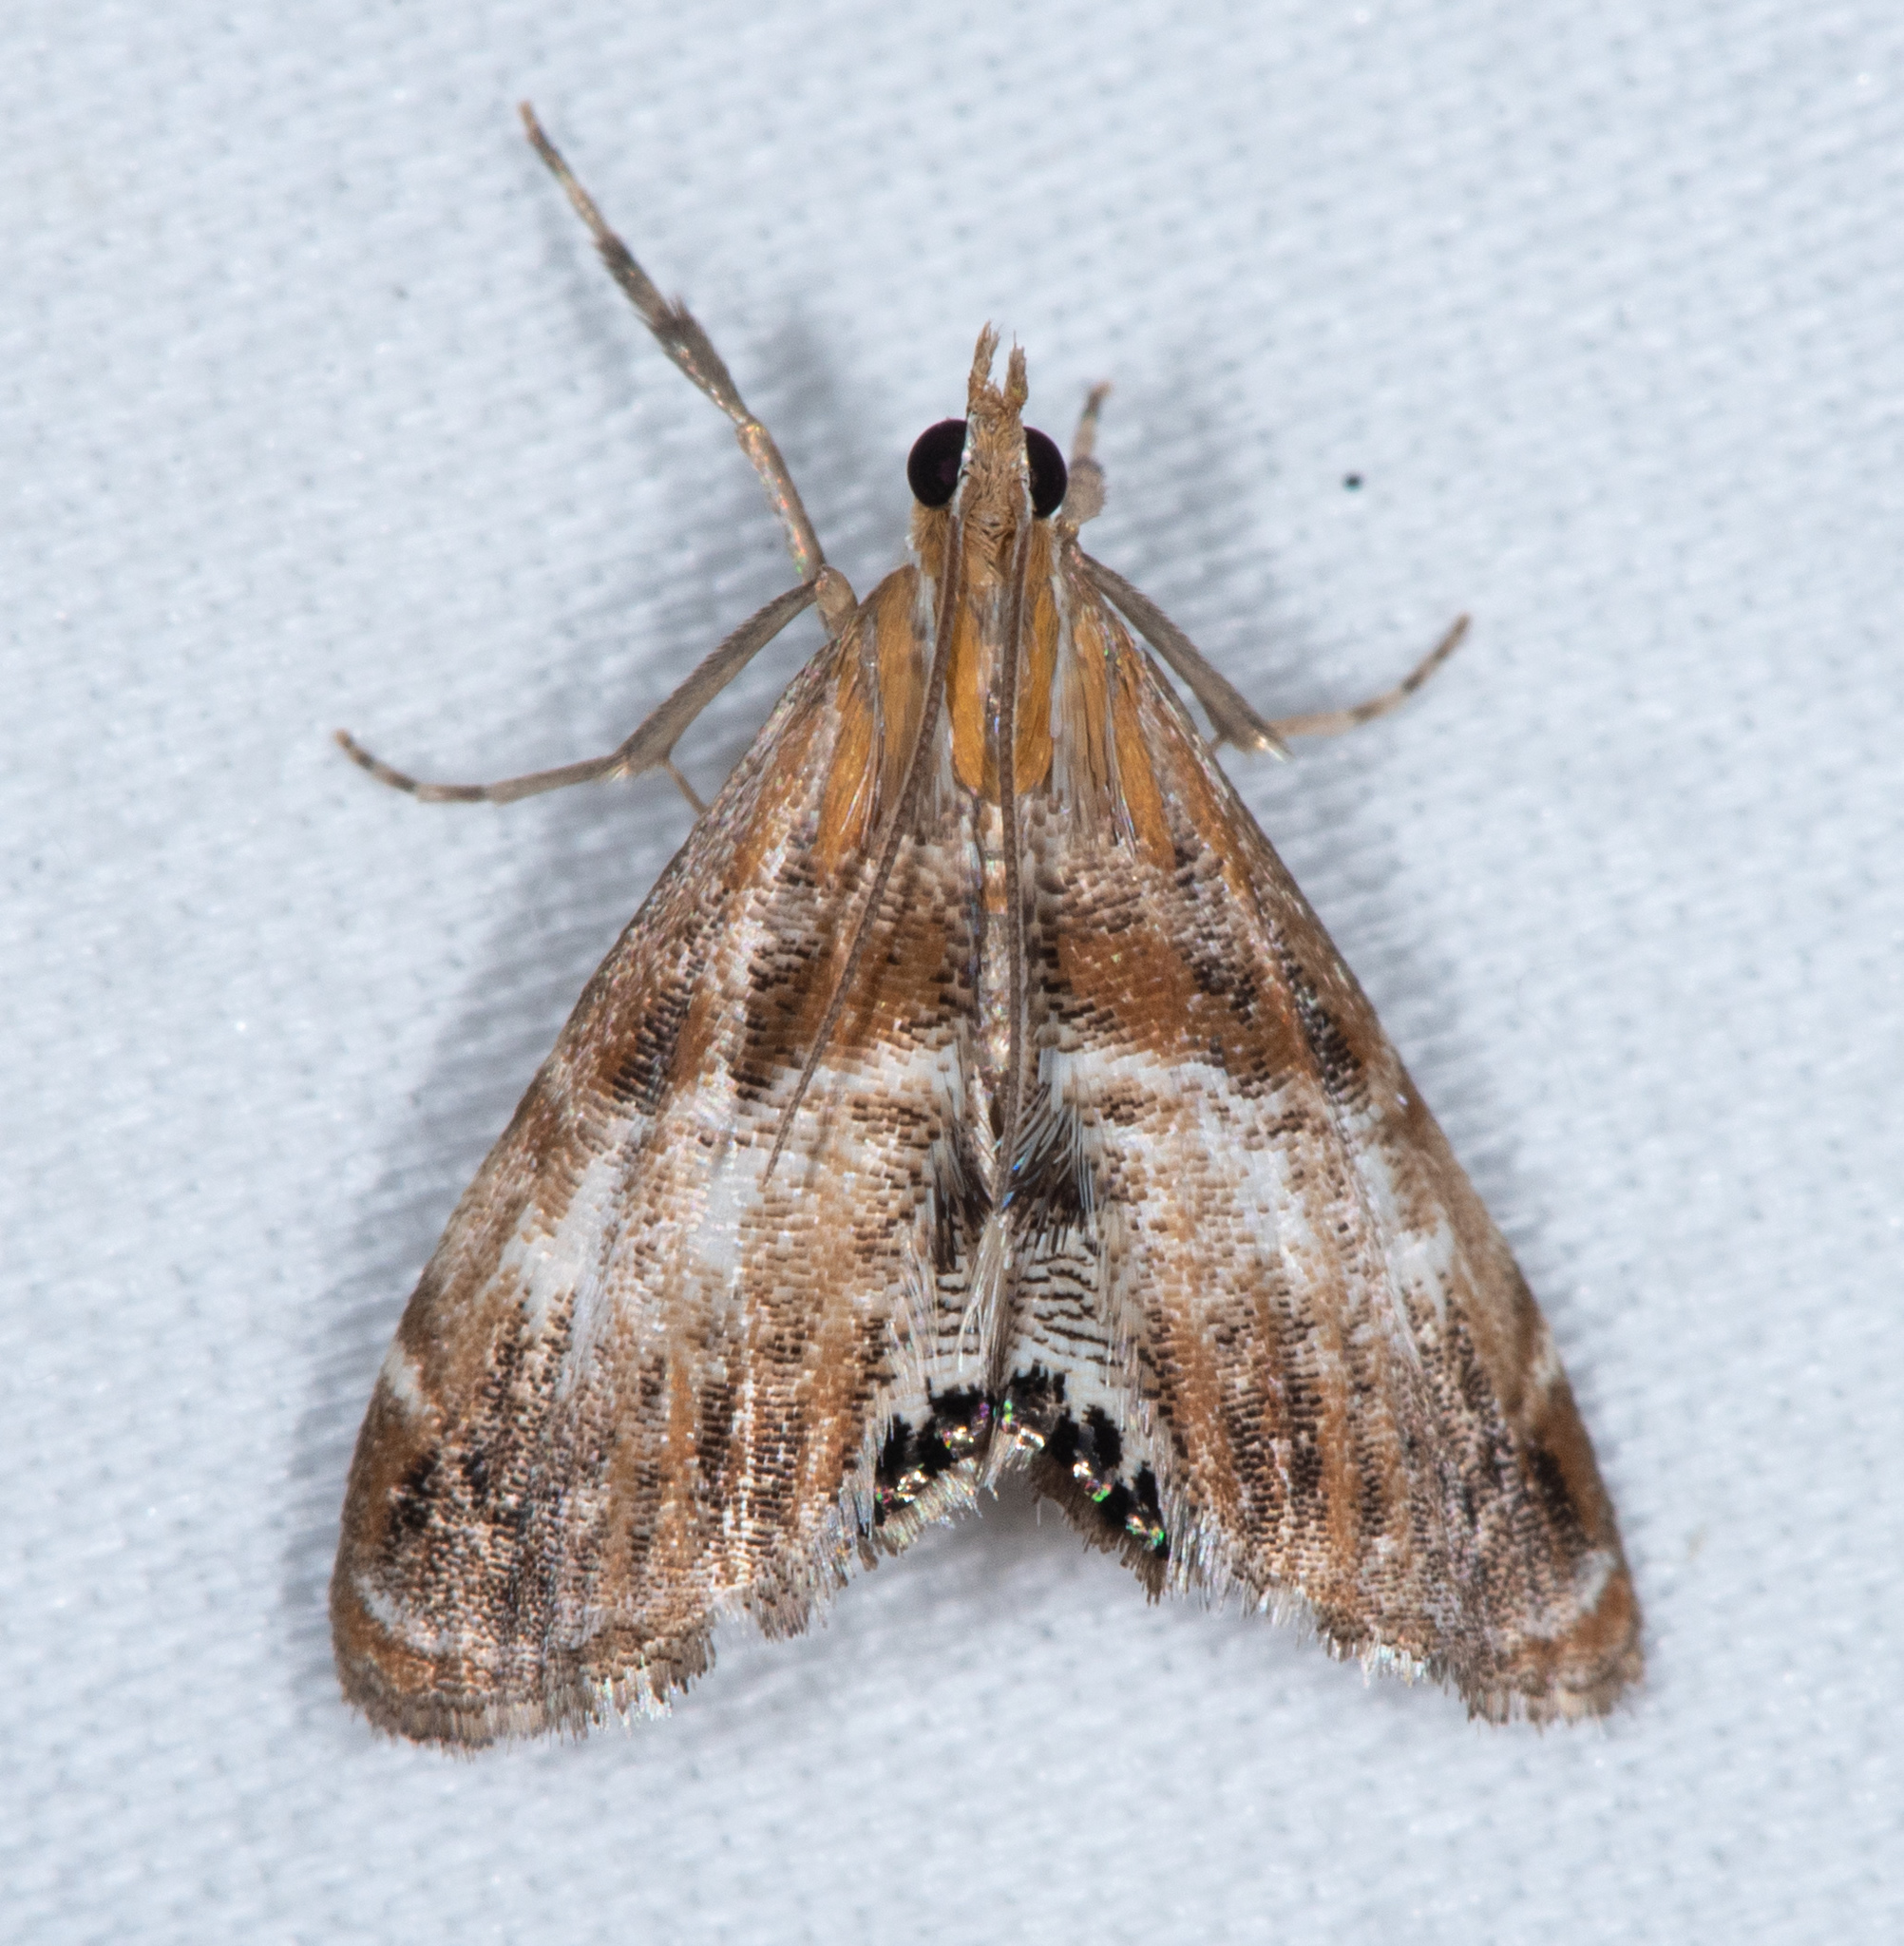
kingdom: Animalia
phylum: Arthropoda
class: Insecta
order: Lepidoptera
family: Crambidae
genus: Dicymolomia
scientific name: Dicymolomia metalliferalis
